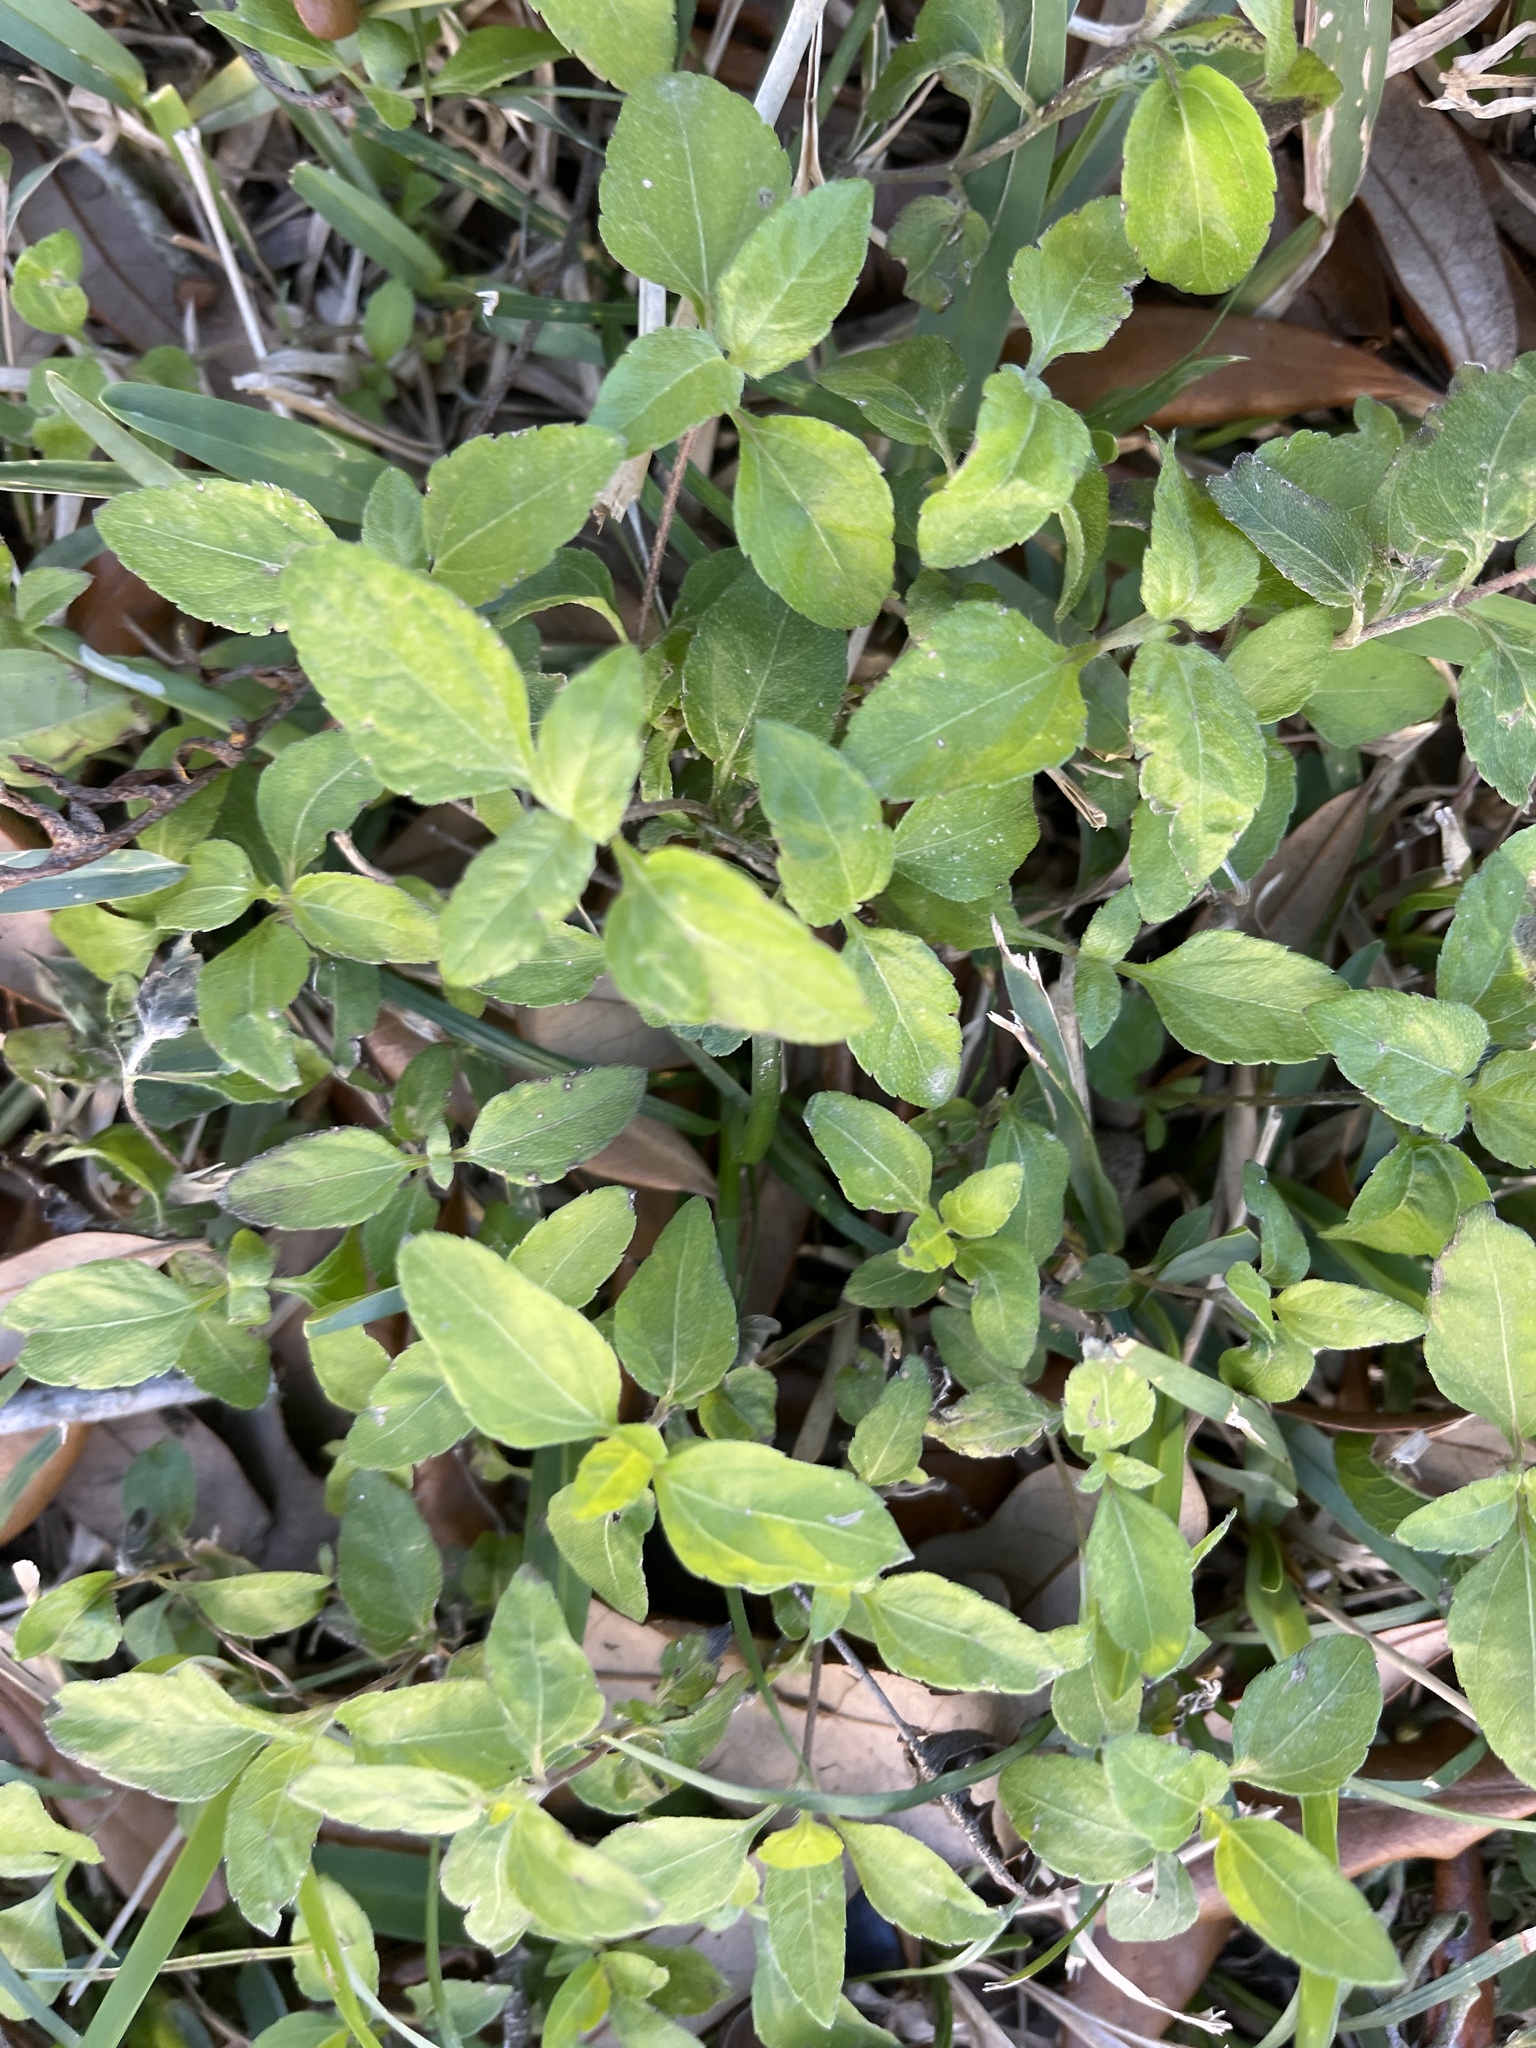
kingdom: Plantae
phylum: Tracheophyta
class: Magnoliopsida
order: Asterales
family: Asteraceae
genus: Calyptocarpus
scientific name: Calyptocarpus vialis
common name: Straggler daisy
